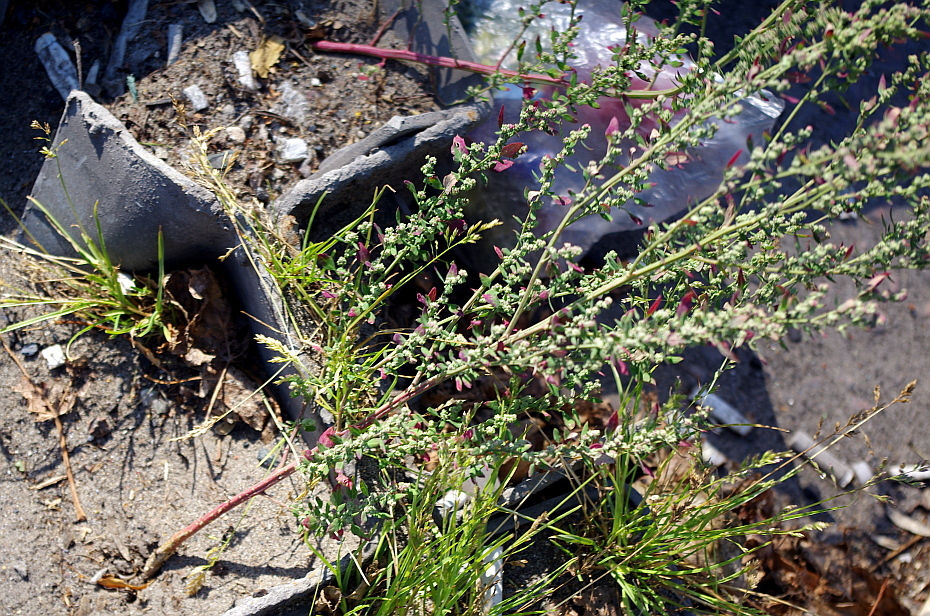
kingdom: Plantae
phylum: Tracheophyta
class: Magnoliopsida
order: Caryophyllales
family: Amaranthaceae
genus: Chenopodium
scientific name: Chenopodium album
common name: Fat-hen
